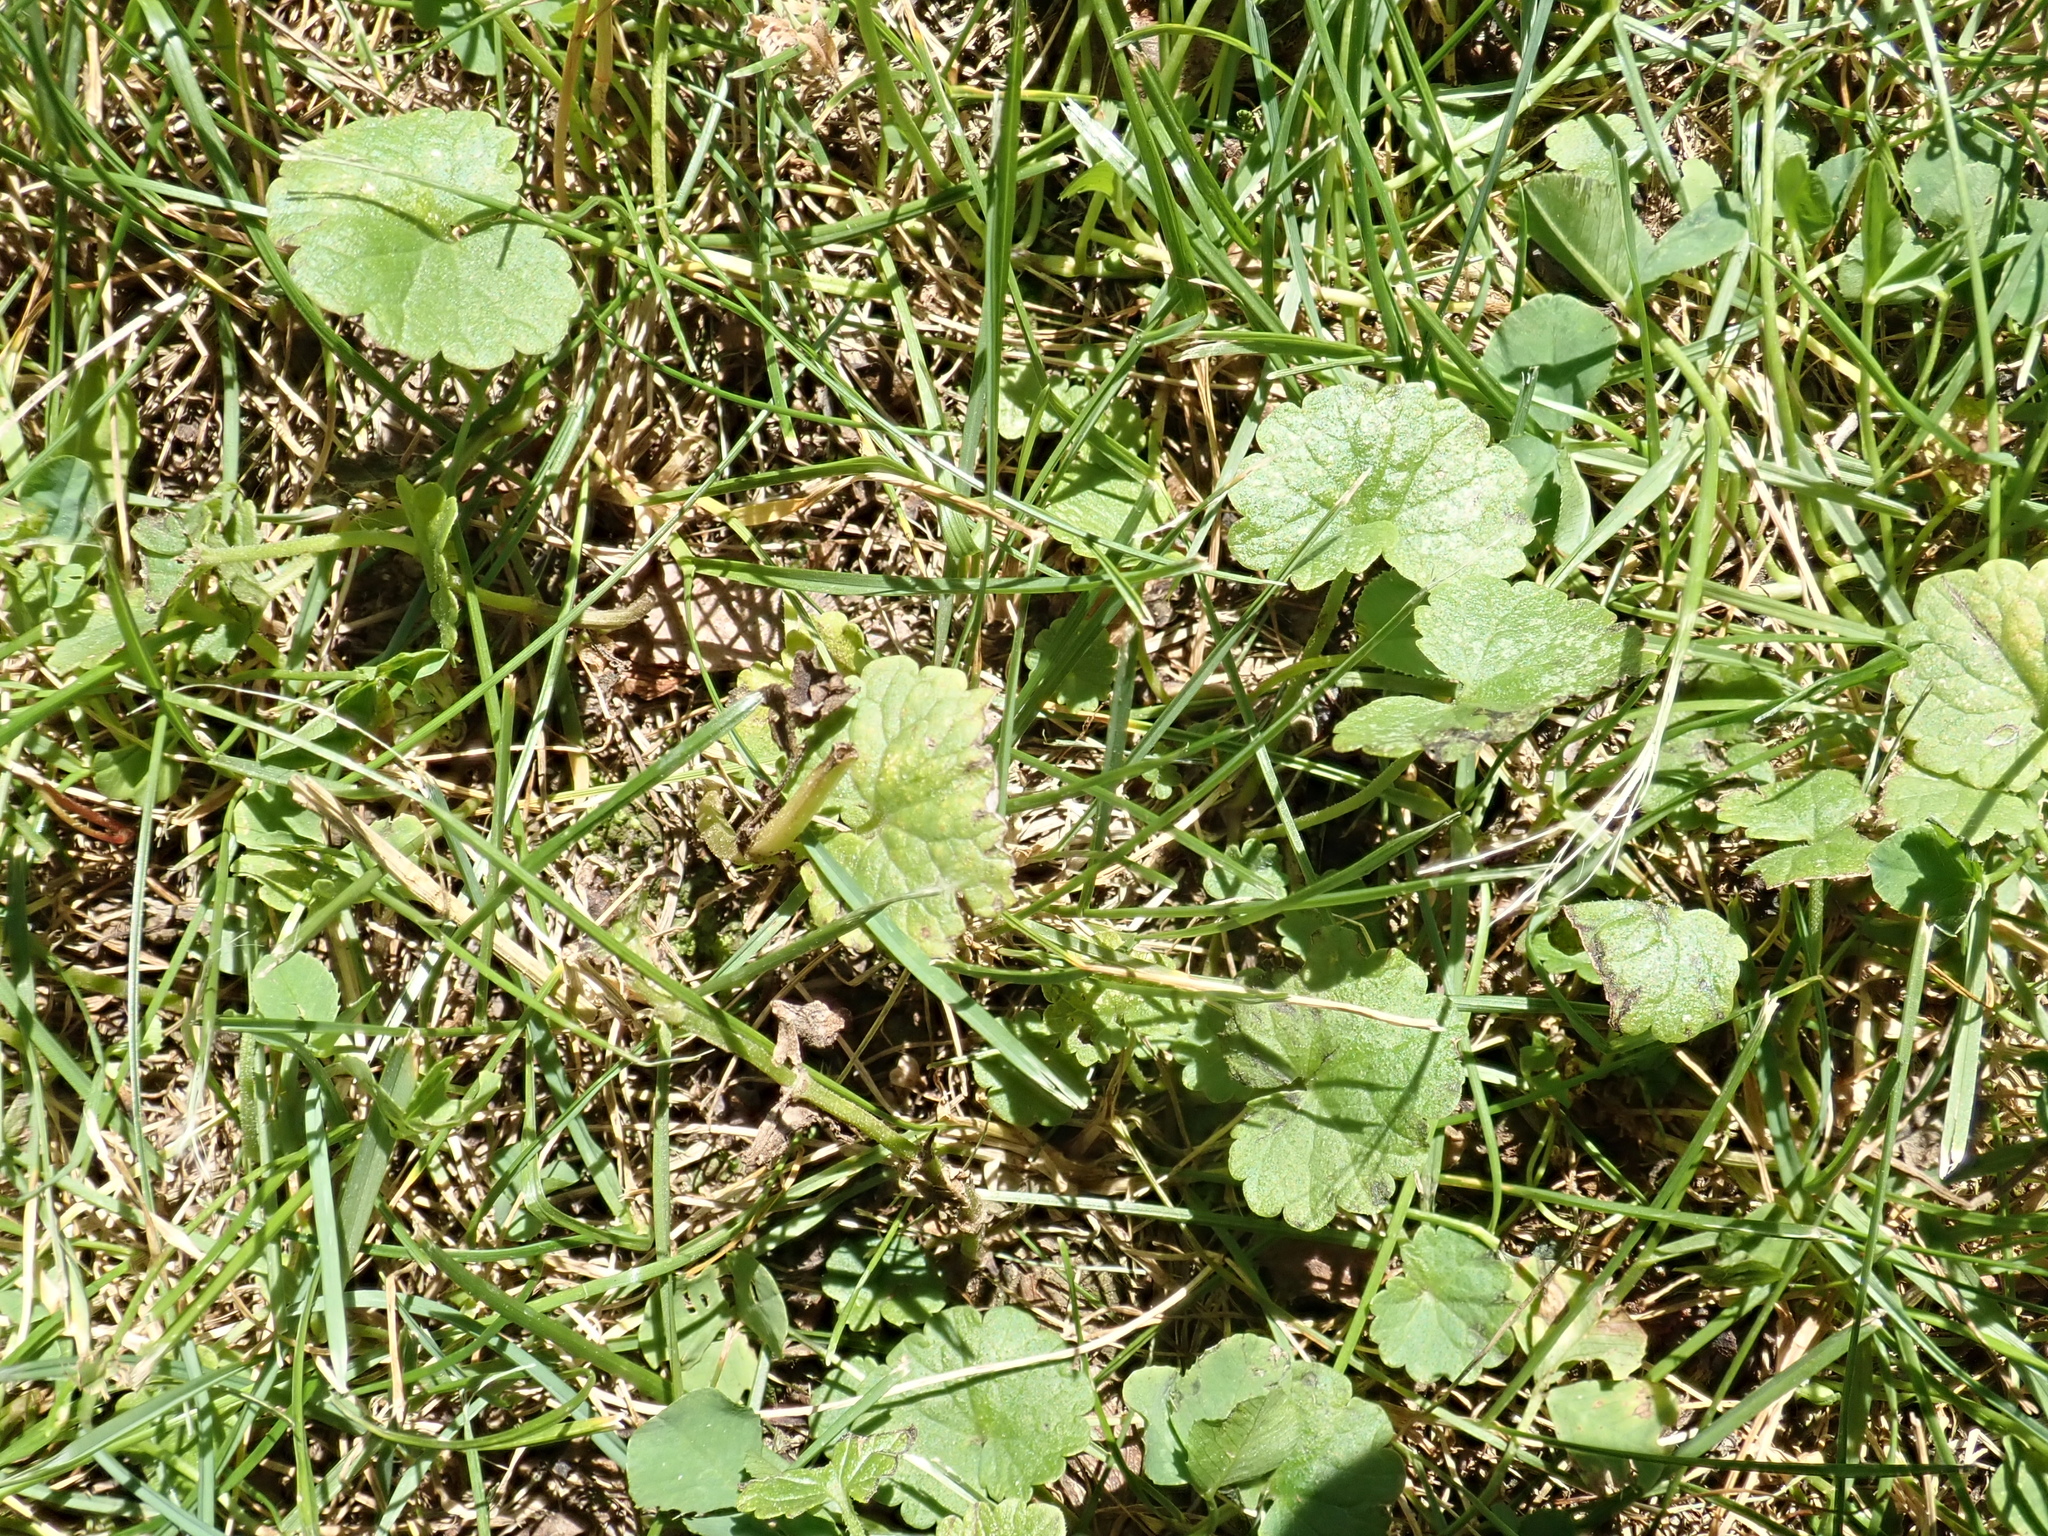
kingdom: Plantae
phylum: Tracheophyta
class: Magnoliopsida
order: Lamiales
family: Lamiaceae
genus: Glechoma
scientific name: Glechoma hederacea
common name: Ground ivy
